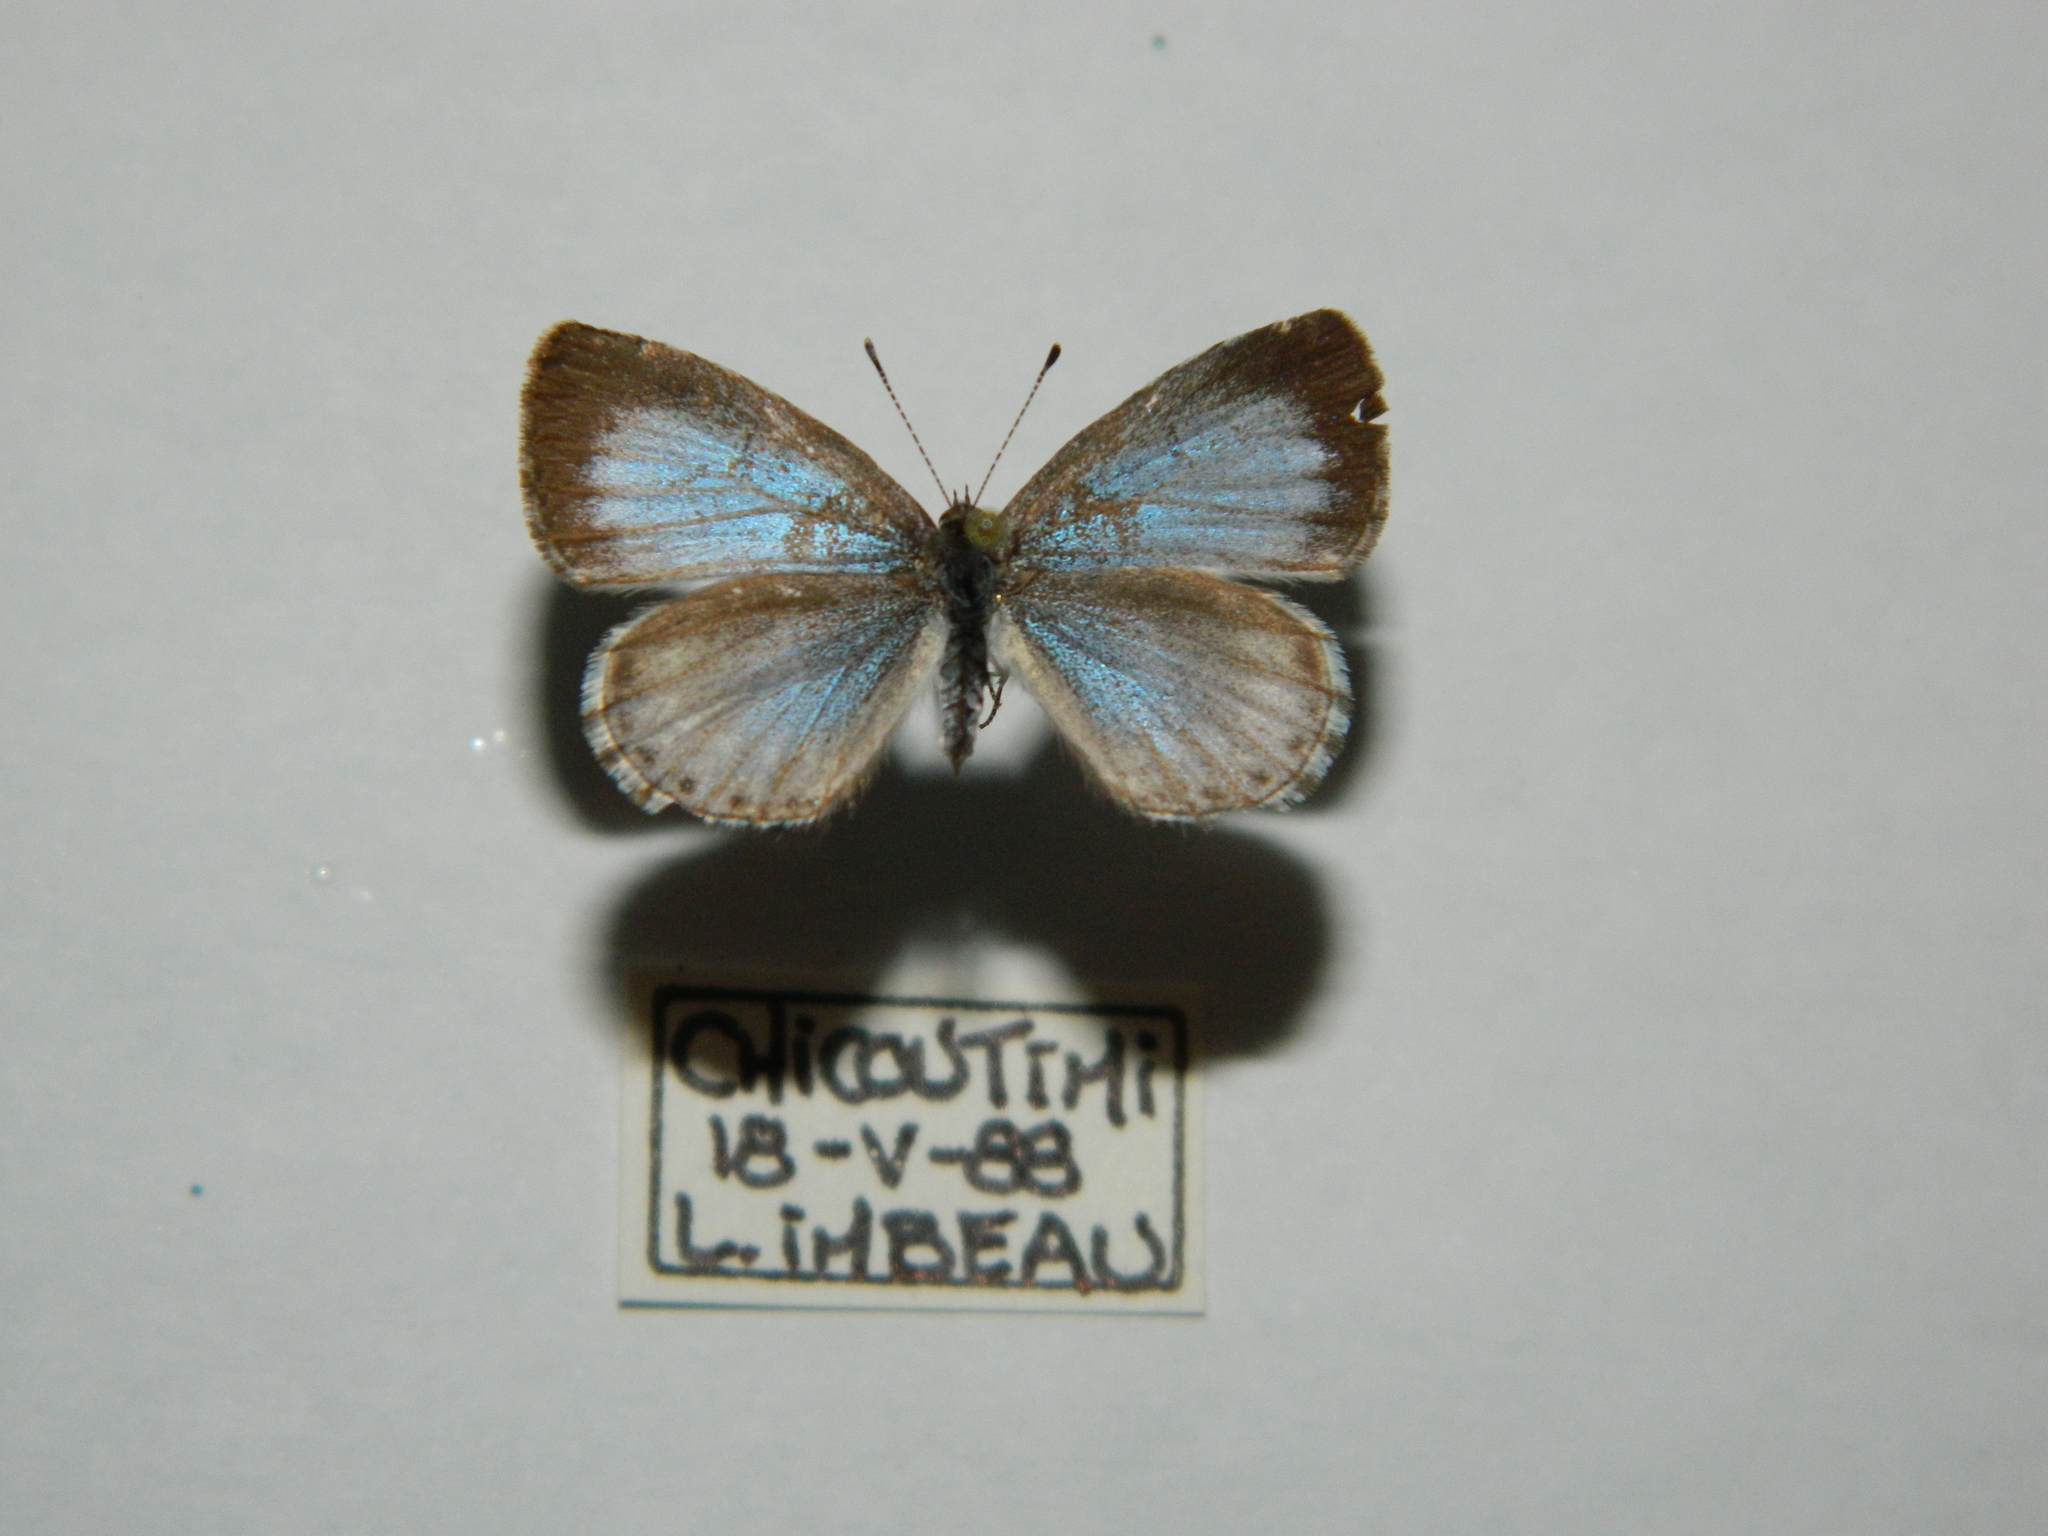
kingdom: Animalia
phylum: Arthropoda
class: Insecta
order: Lepidoptera
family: Lycaenidae
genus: Celastrina
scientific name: Celastrina lucia
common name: Lucia azure
